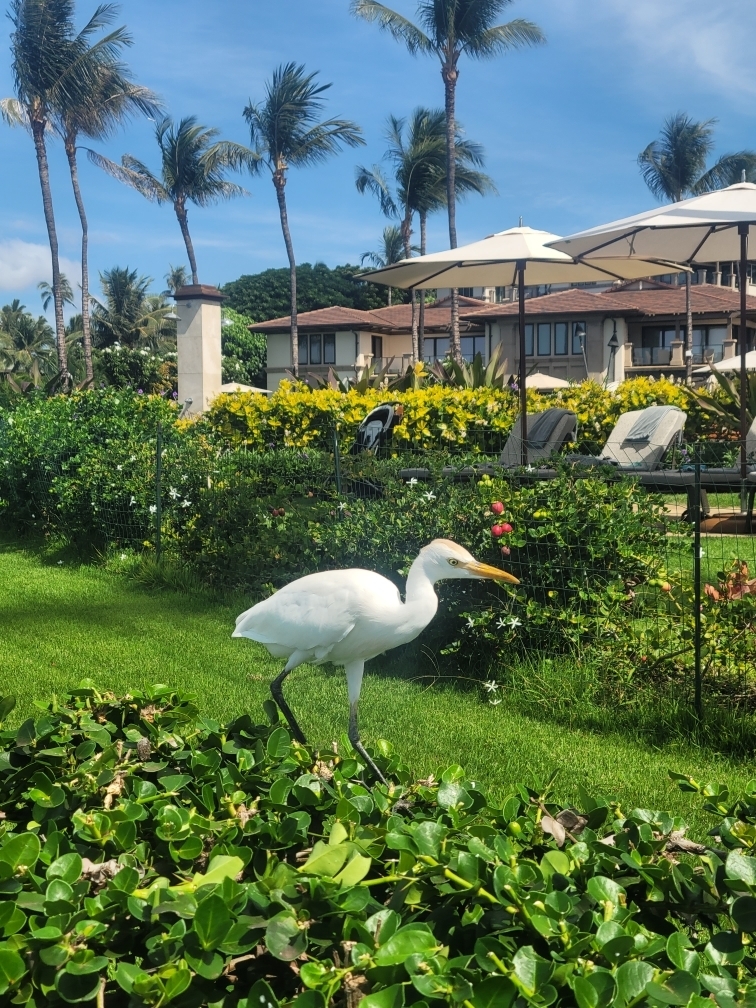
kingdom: Animalia
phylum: Chordata
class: Aves
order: Pelecaniformes
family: Ardeidae
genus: Bubulcus
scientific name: Bubulcus ibis
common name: Cattle egret
